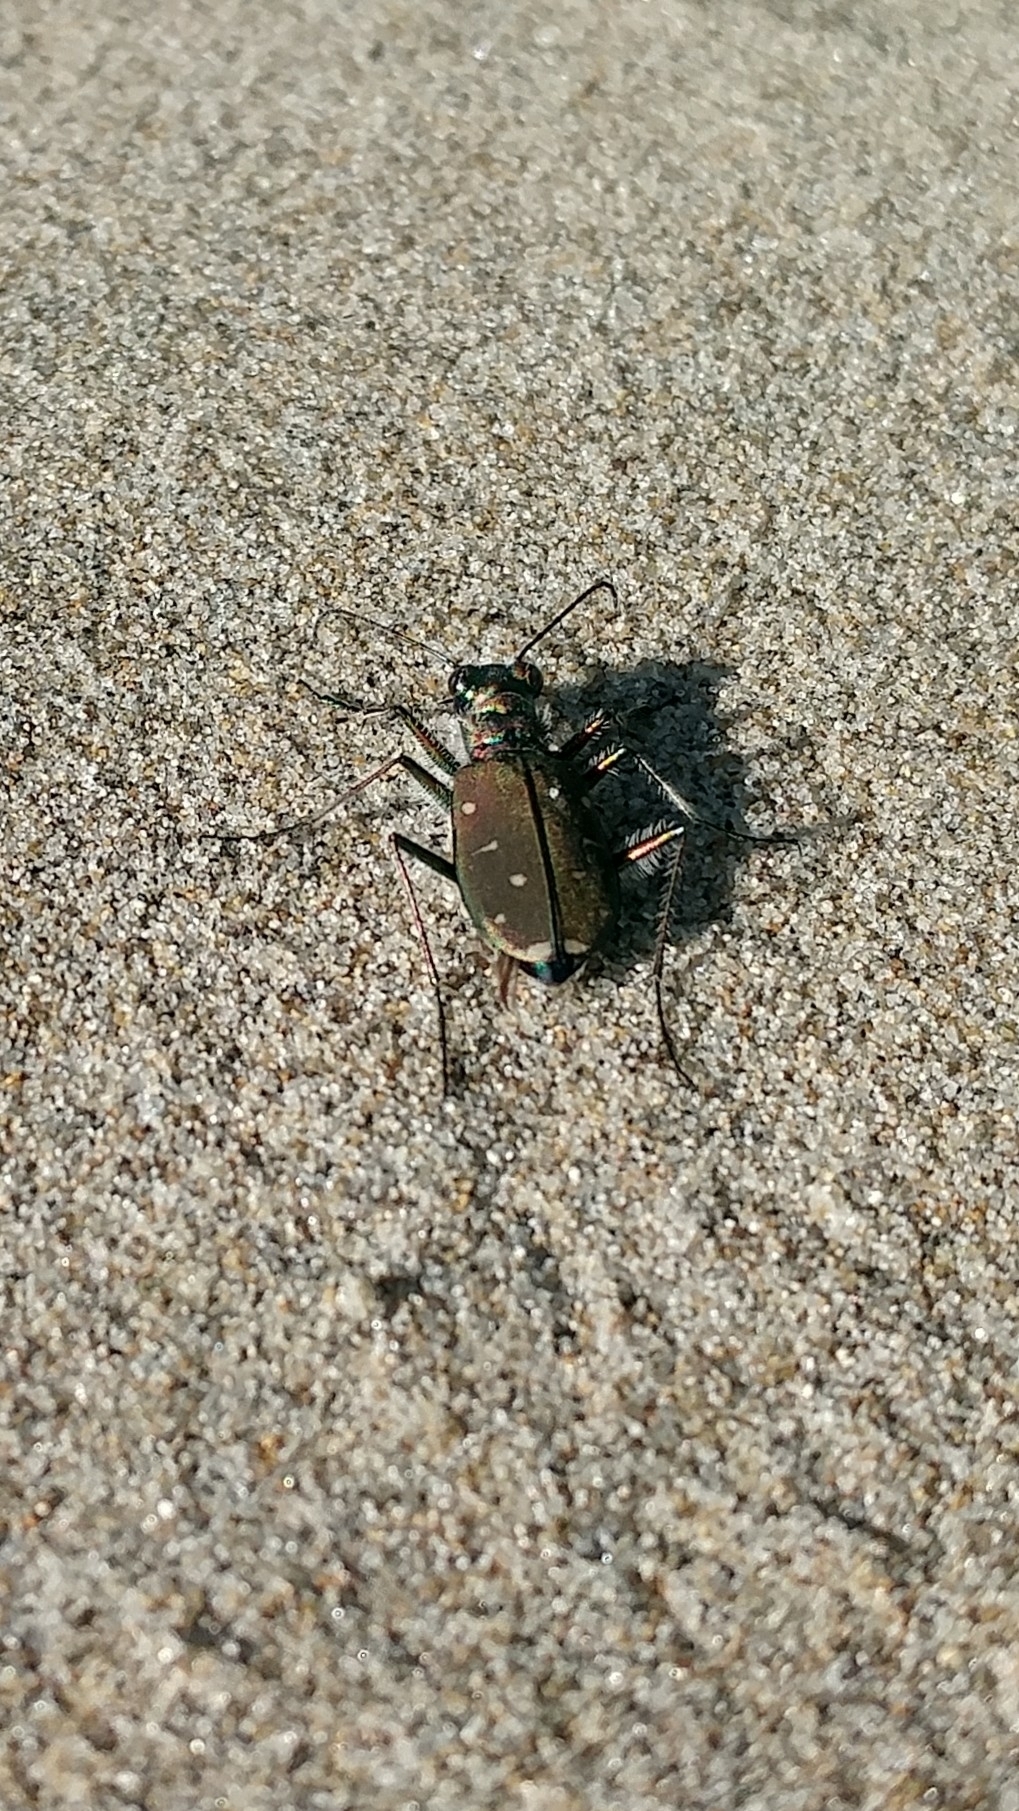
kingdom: Animalia
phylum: Arthropoda
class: Insecta
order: Coleoptera
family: Carabidae
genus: Cicindela
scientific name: Cicindela oregona
